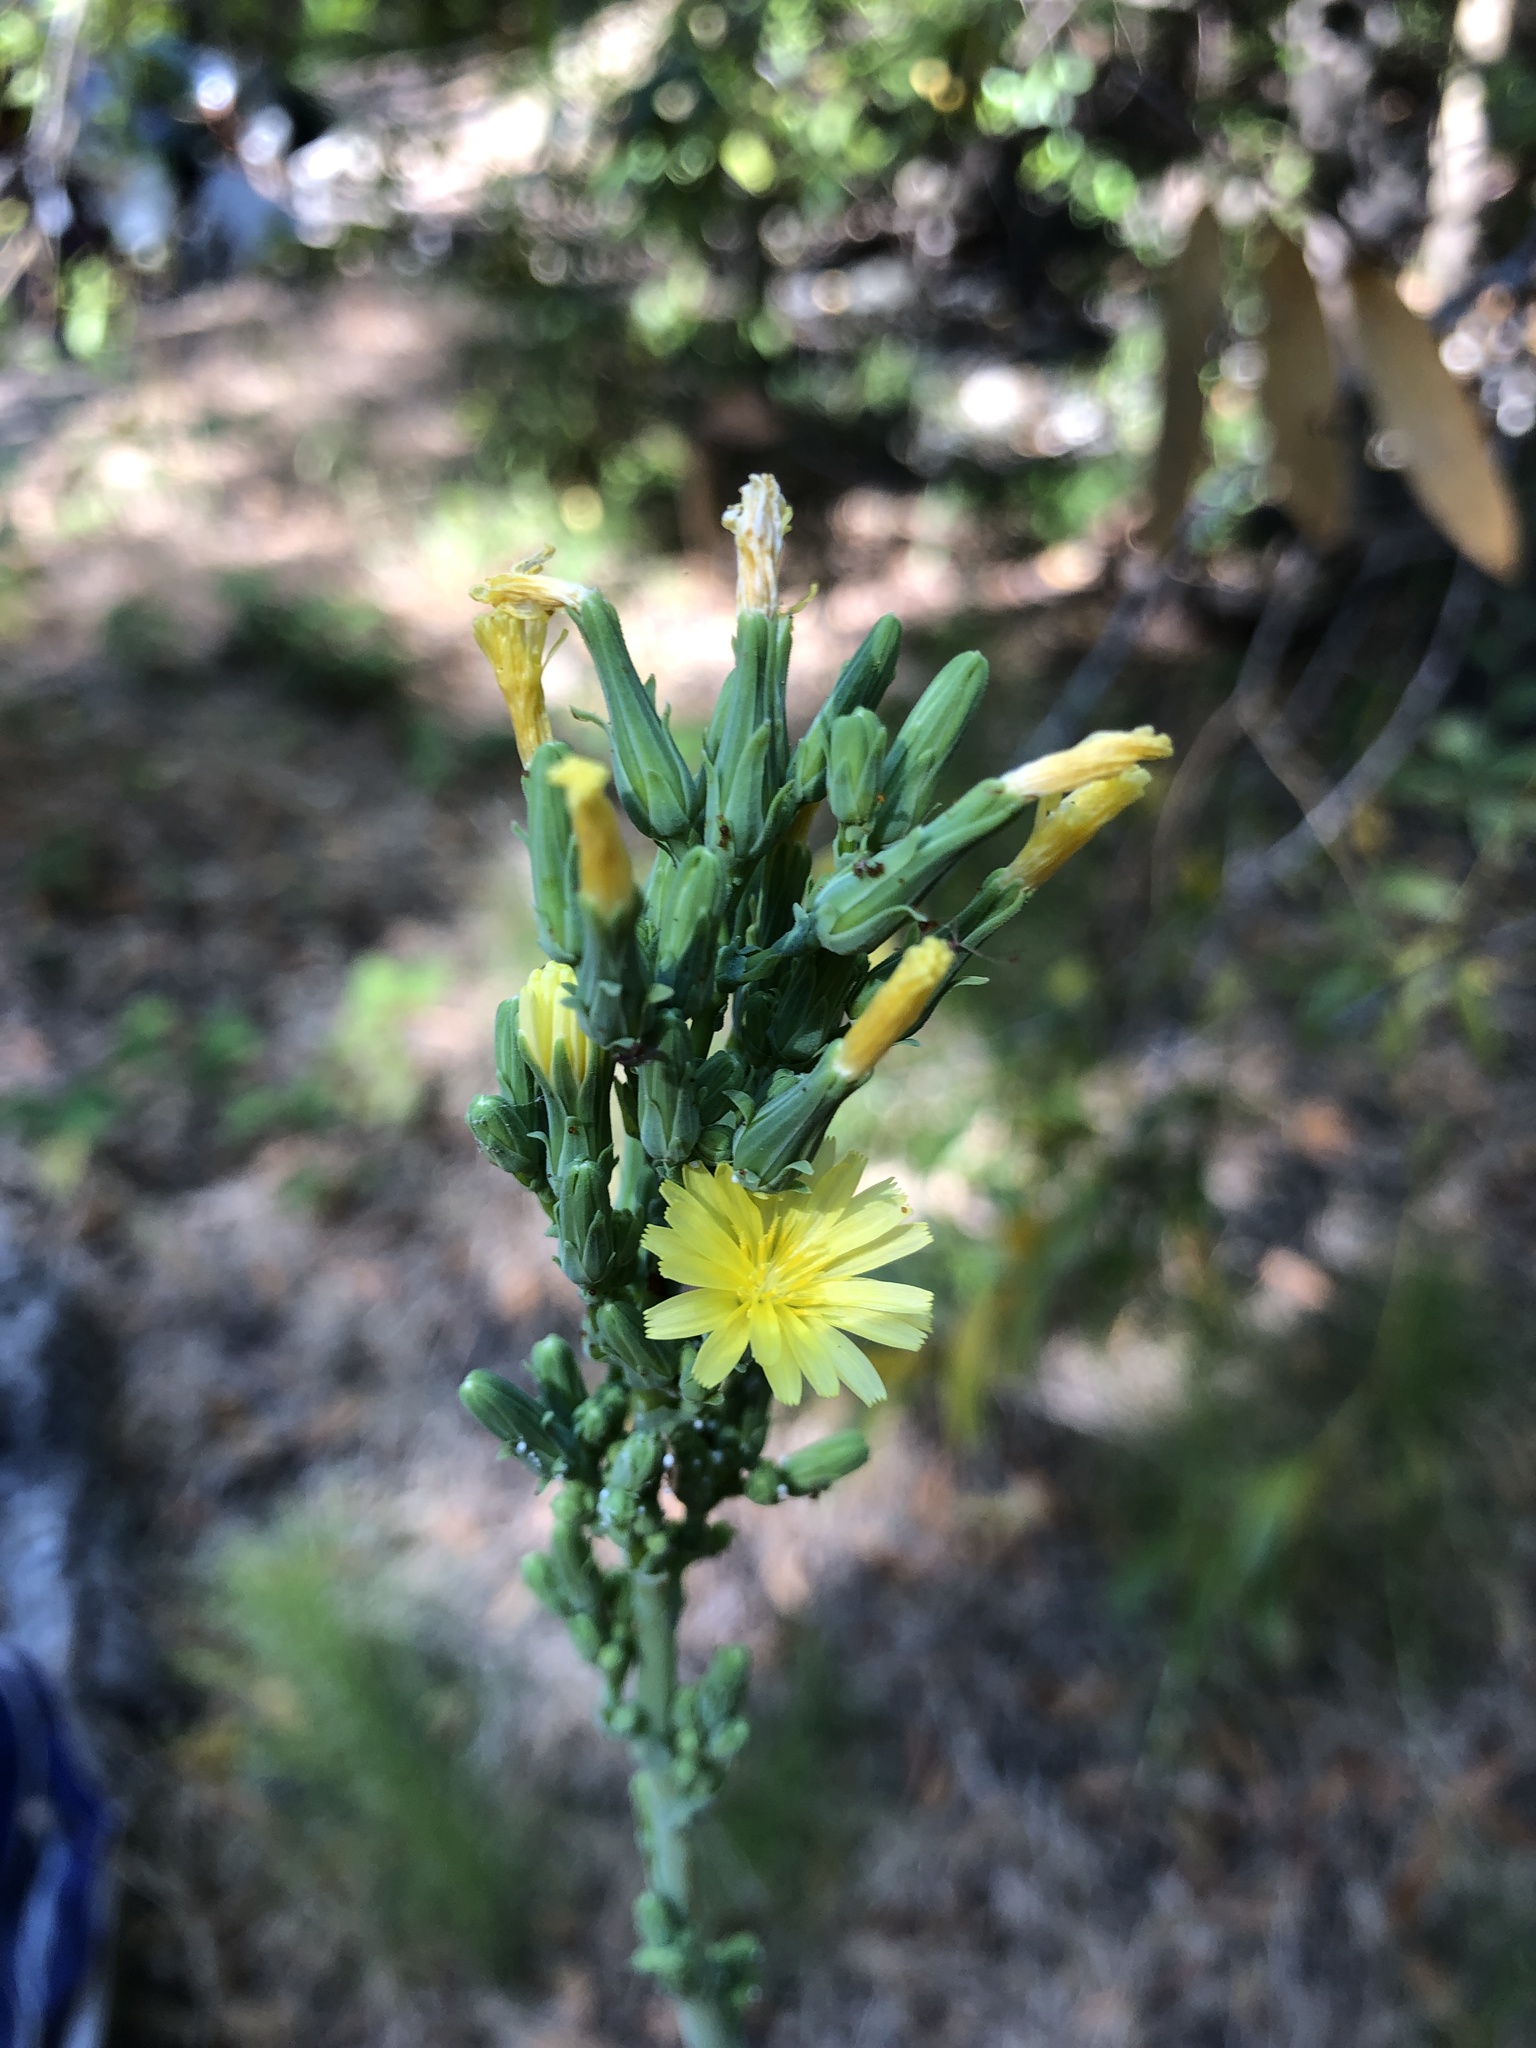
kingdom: Plantae
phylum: Tracheophyta
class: Magnoliopsida
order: Asterales
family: Asteraceae
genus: Lactuca
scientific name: Lactuca virosa
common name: Great lettuce
